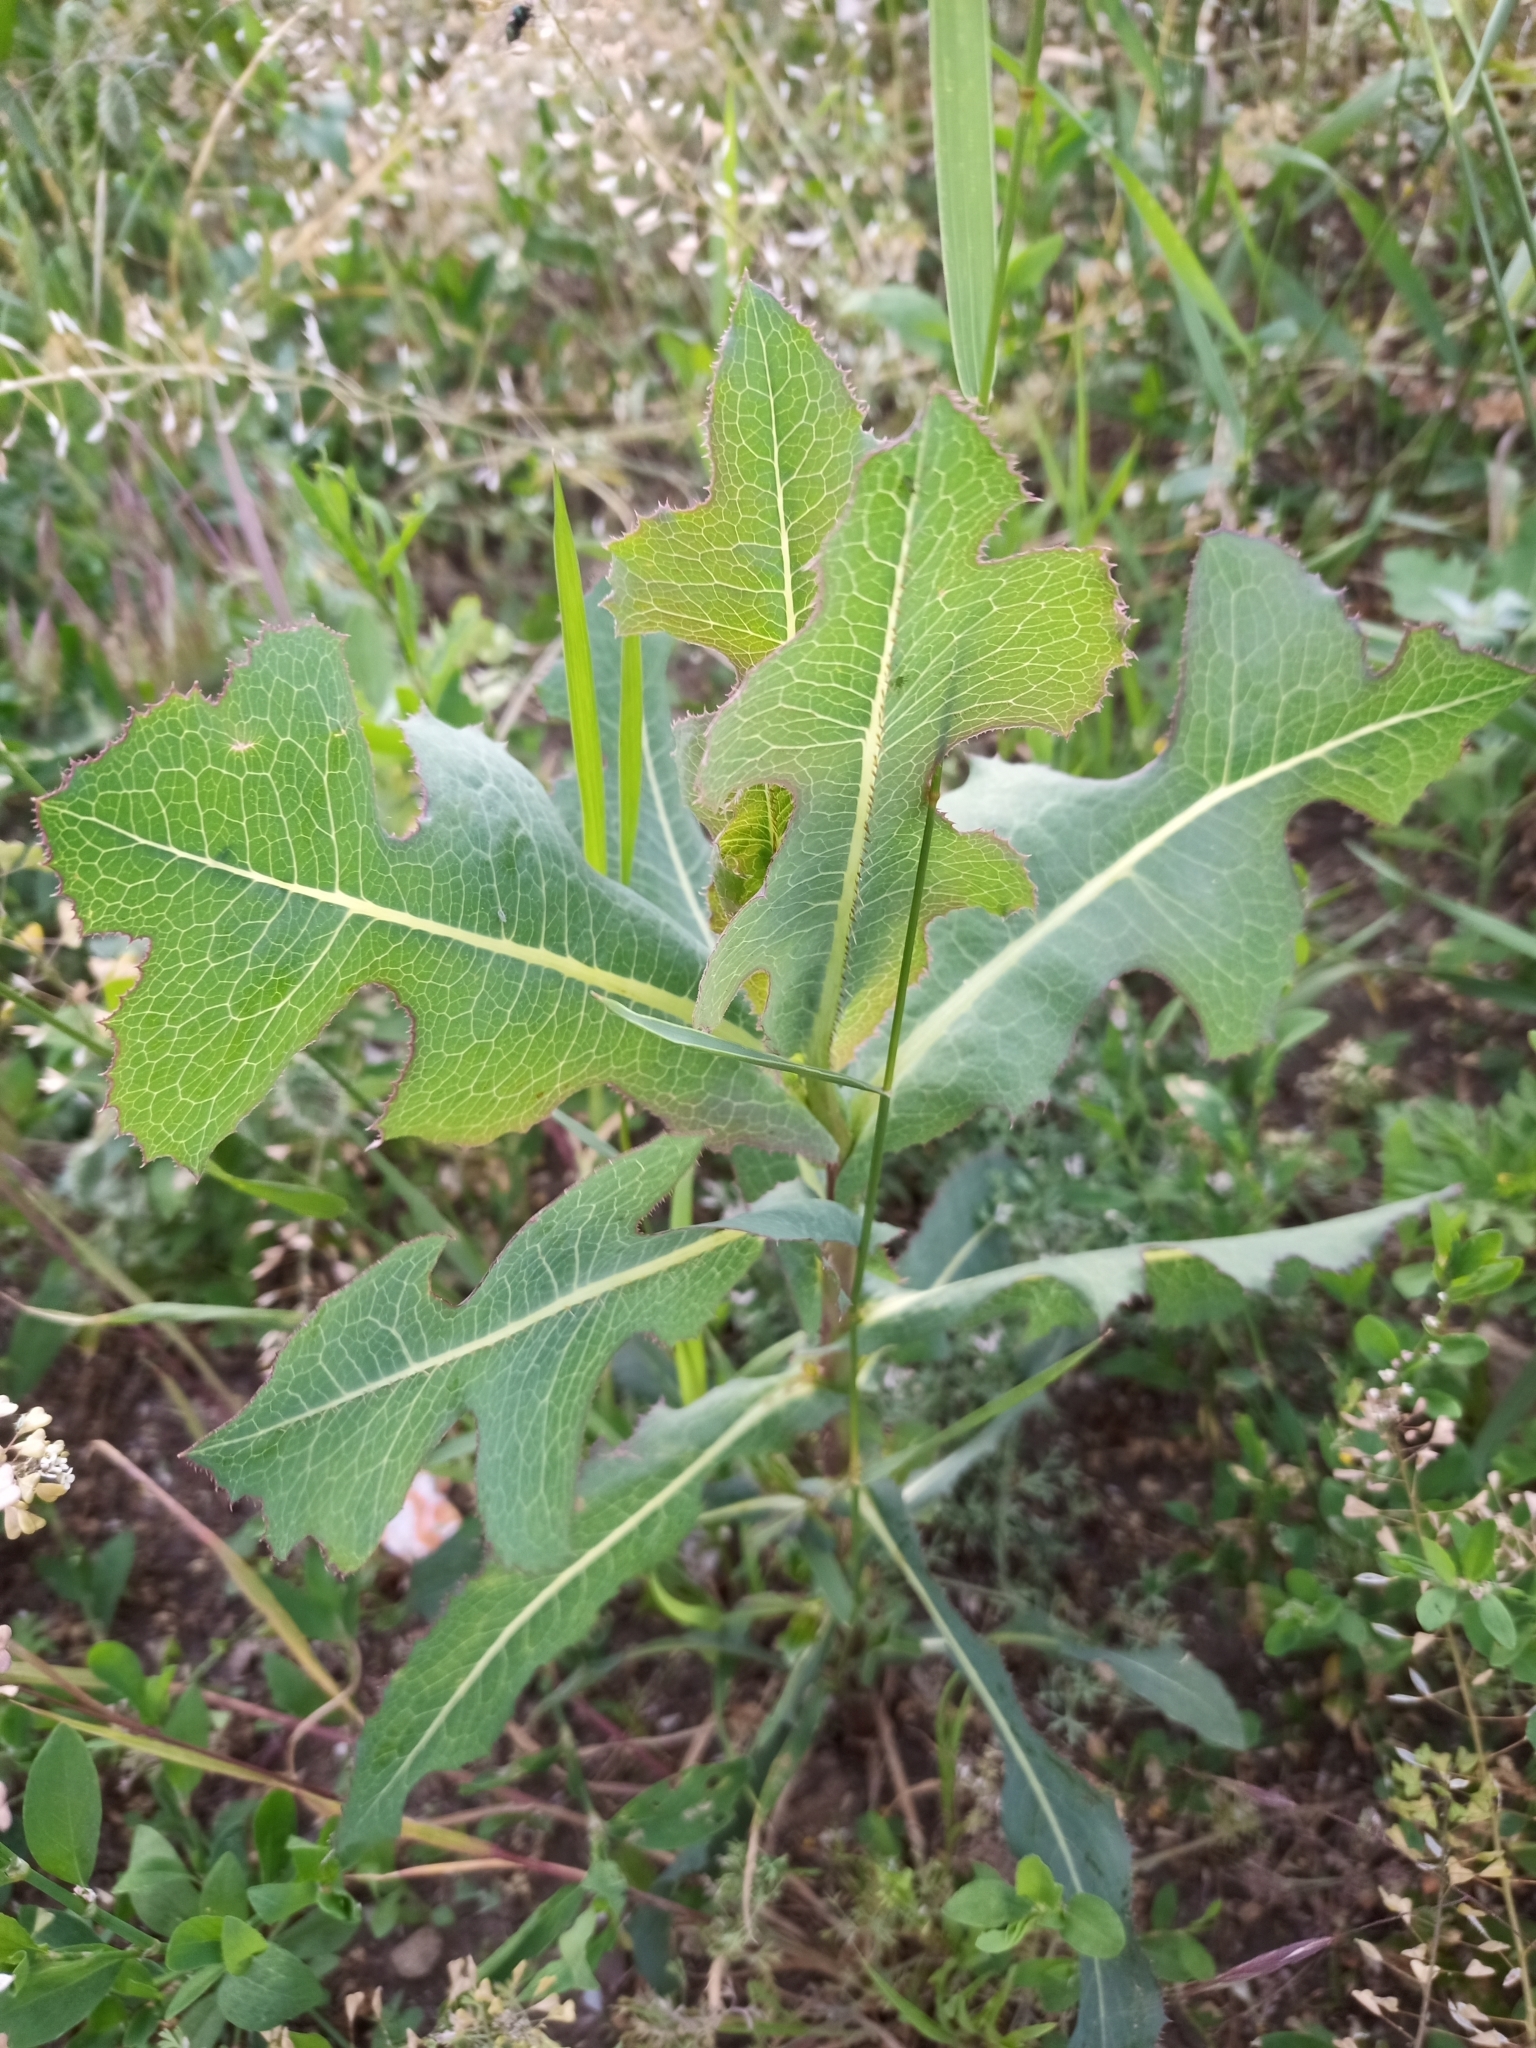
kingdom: Plantae
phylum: Tracheophyta
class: Magnoliopsida
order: Asterales
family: Asteraceae
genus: Lactuca
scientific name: Lactuca serriola
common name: Prickly lettuce
